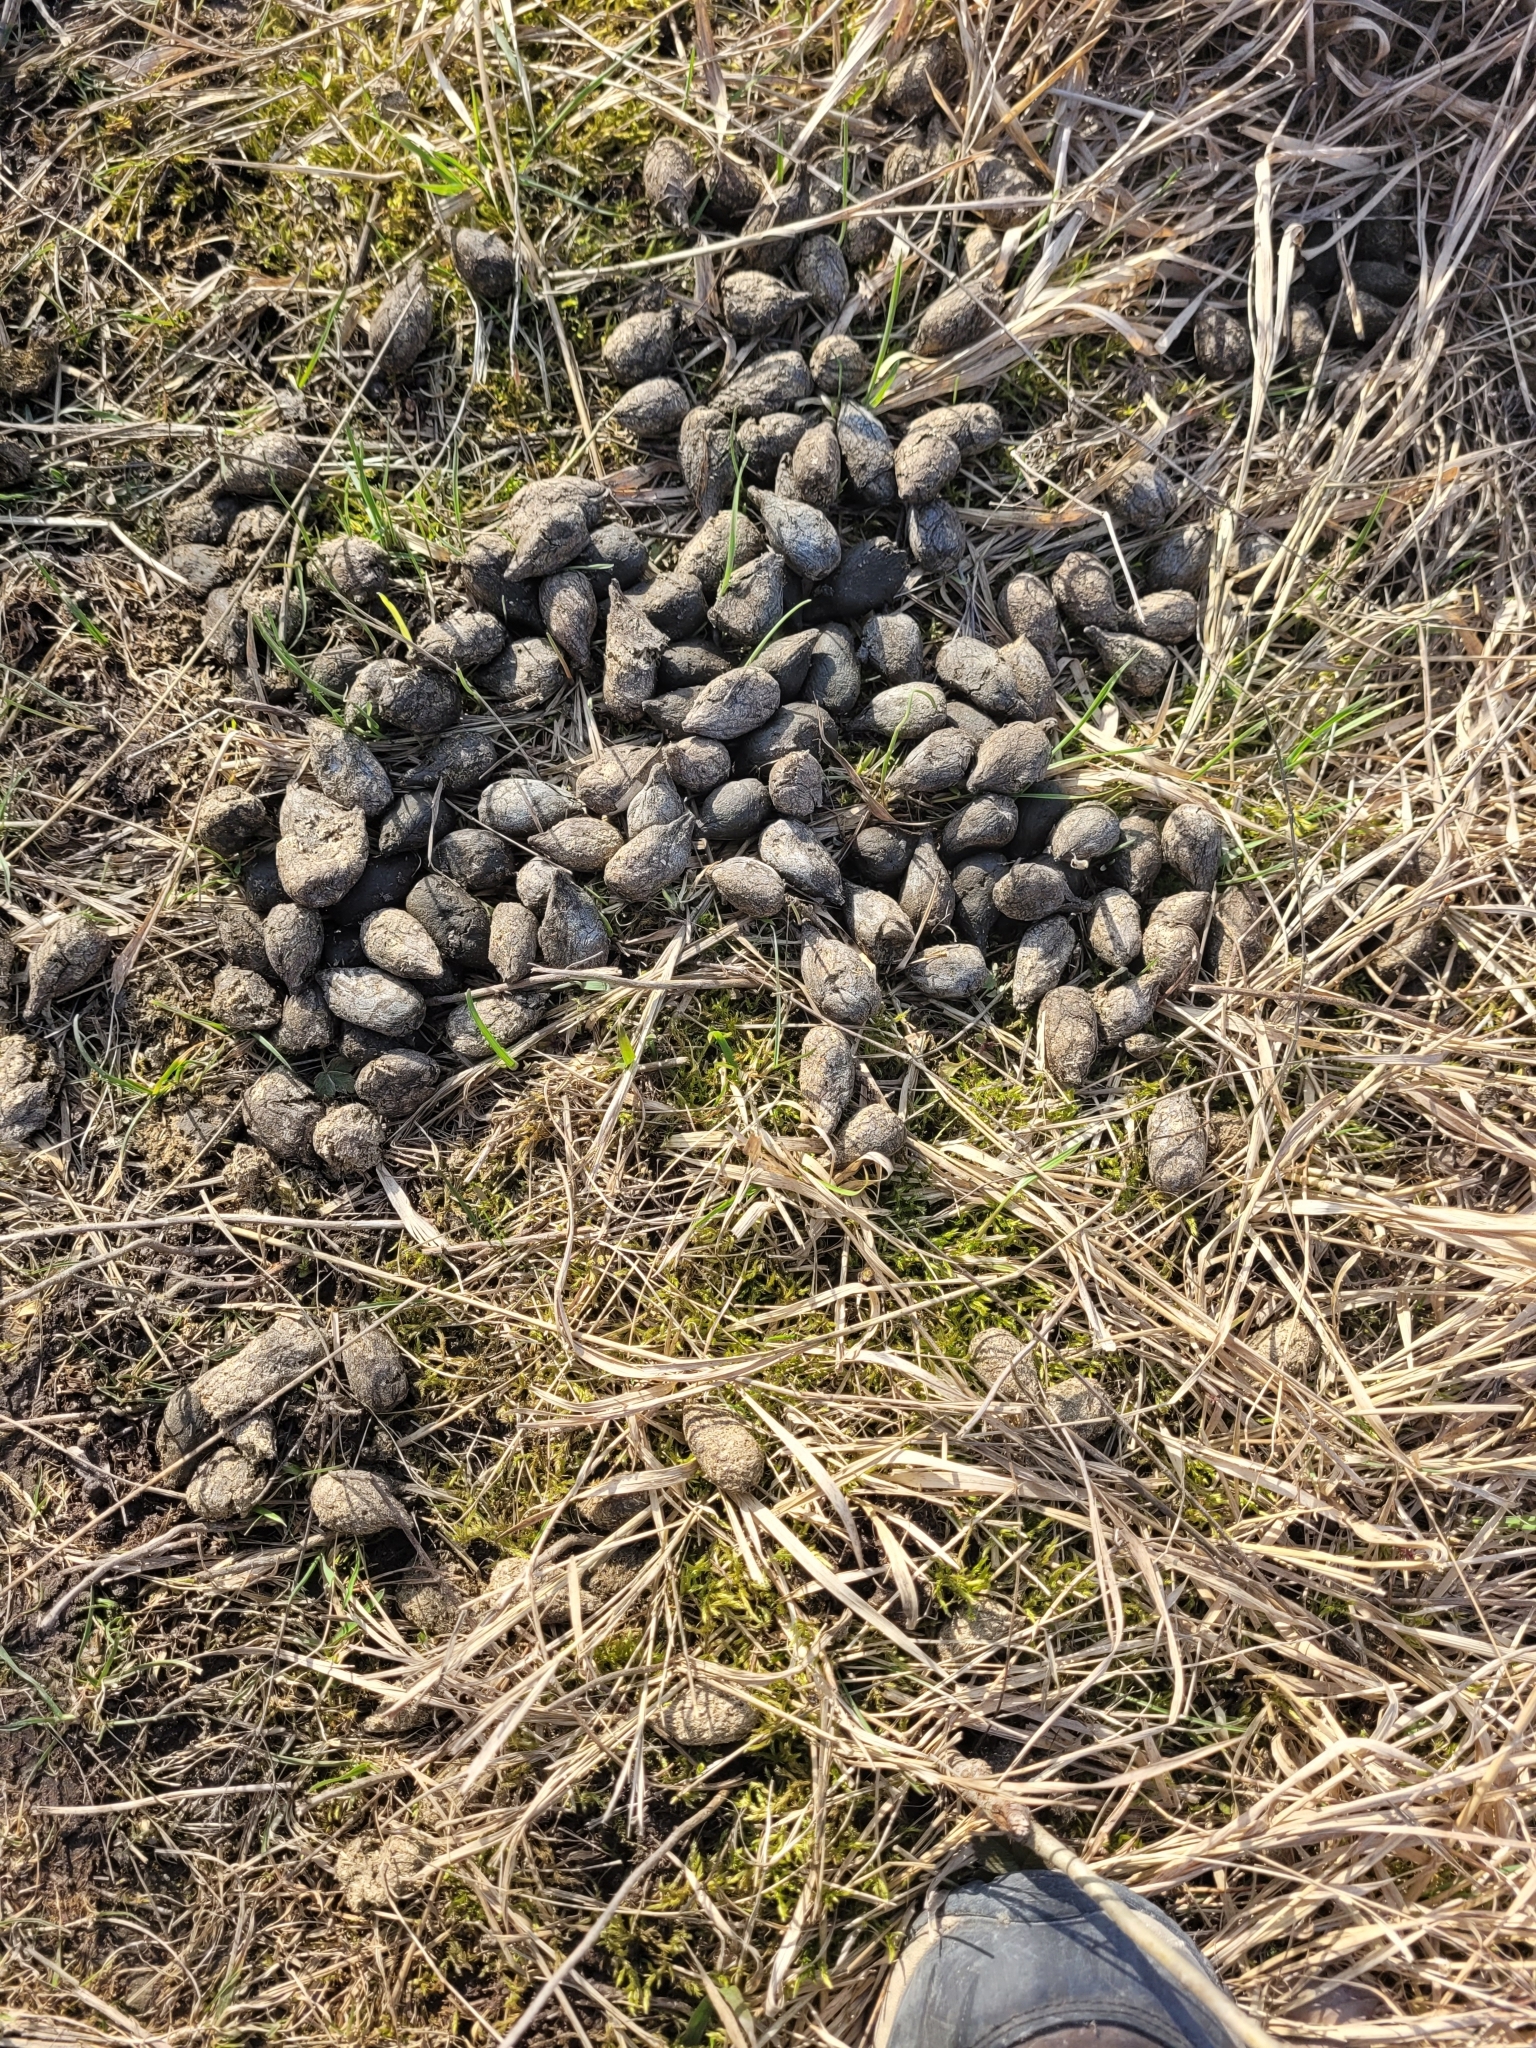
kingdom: Animalia
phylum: Chordata
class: Mammalia
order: Artiodactyla
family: Cervidae
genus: Alces
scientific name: Alces alces
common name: Moose
